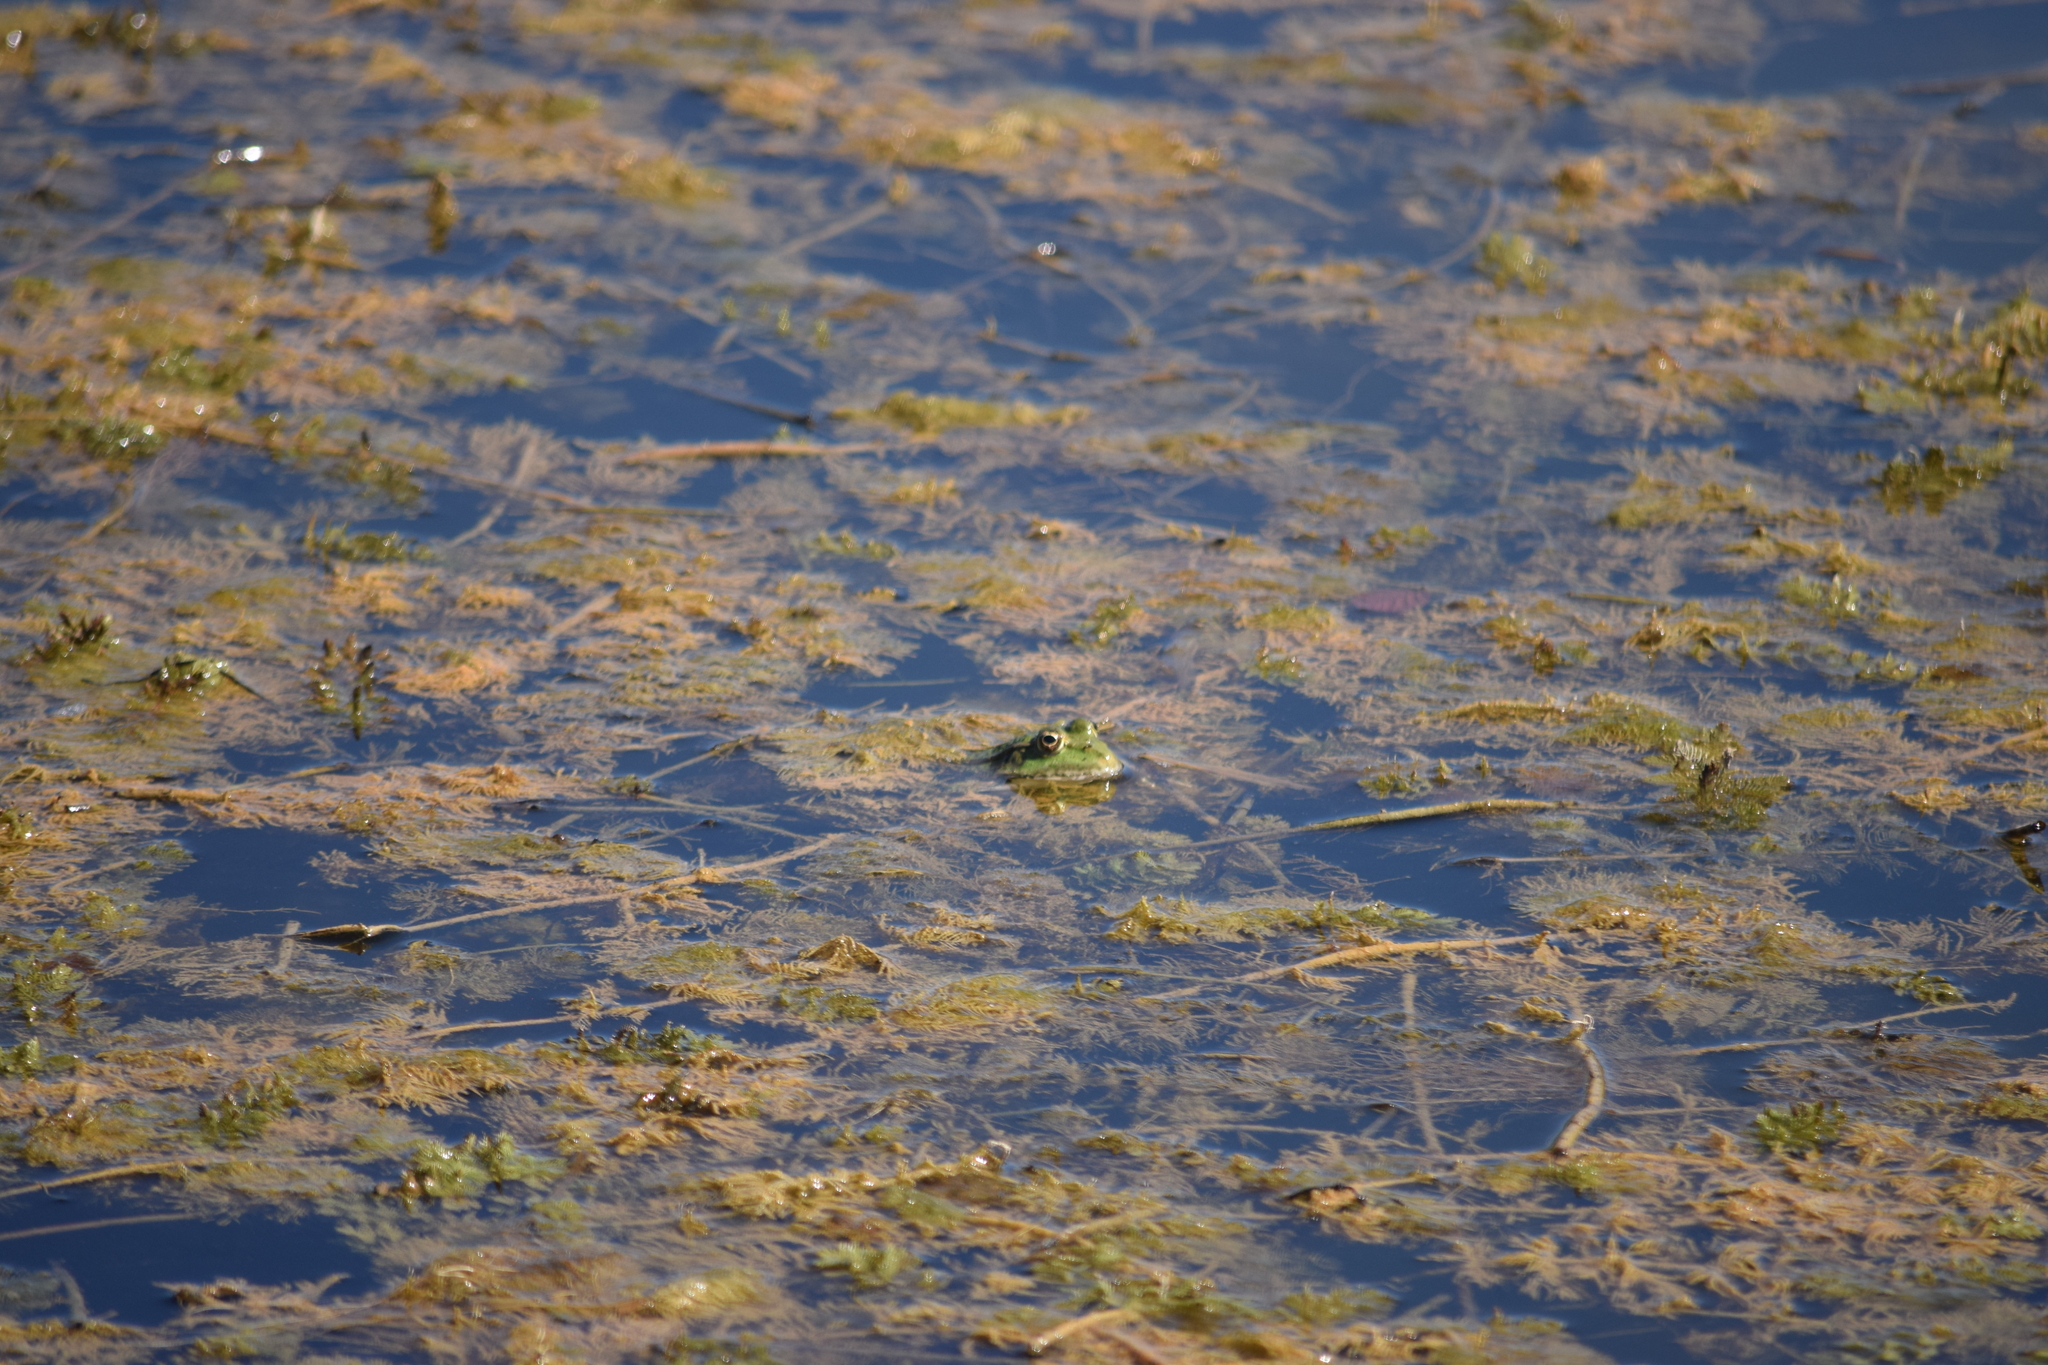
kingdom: Animalia
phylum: Chordata
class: Amphibia
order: Anura
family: Ranidae
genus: Pelophylax
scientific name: Pelophylax ridibundus
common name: Marsh frog
